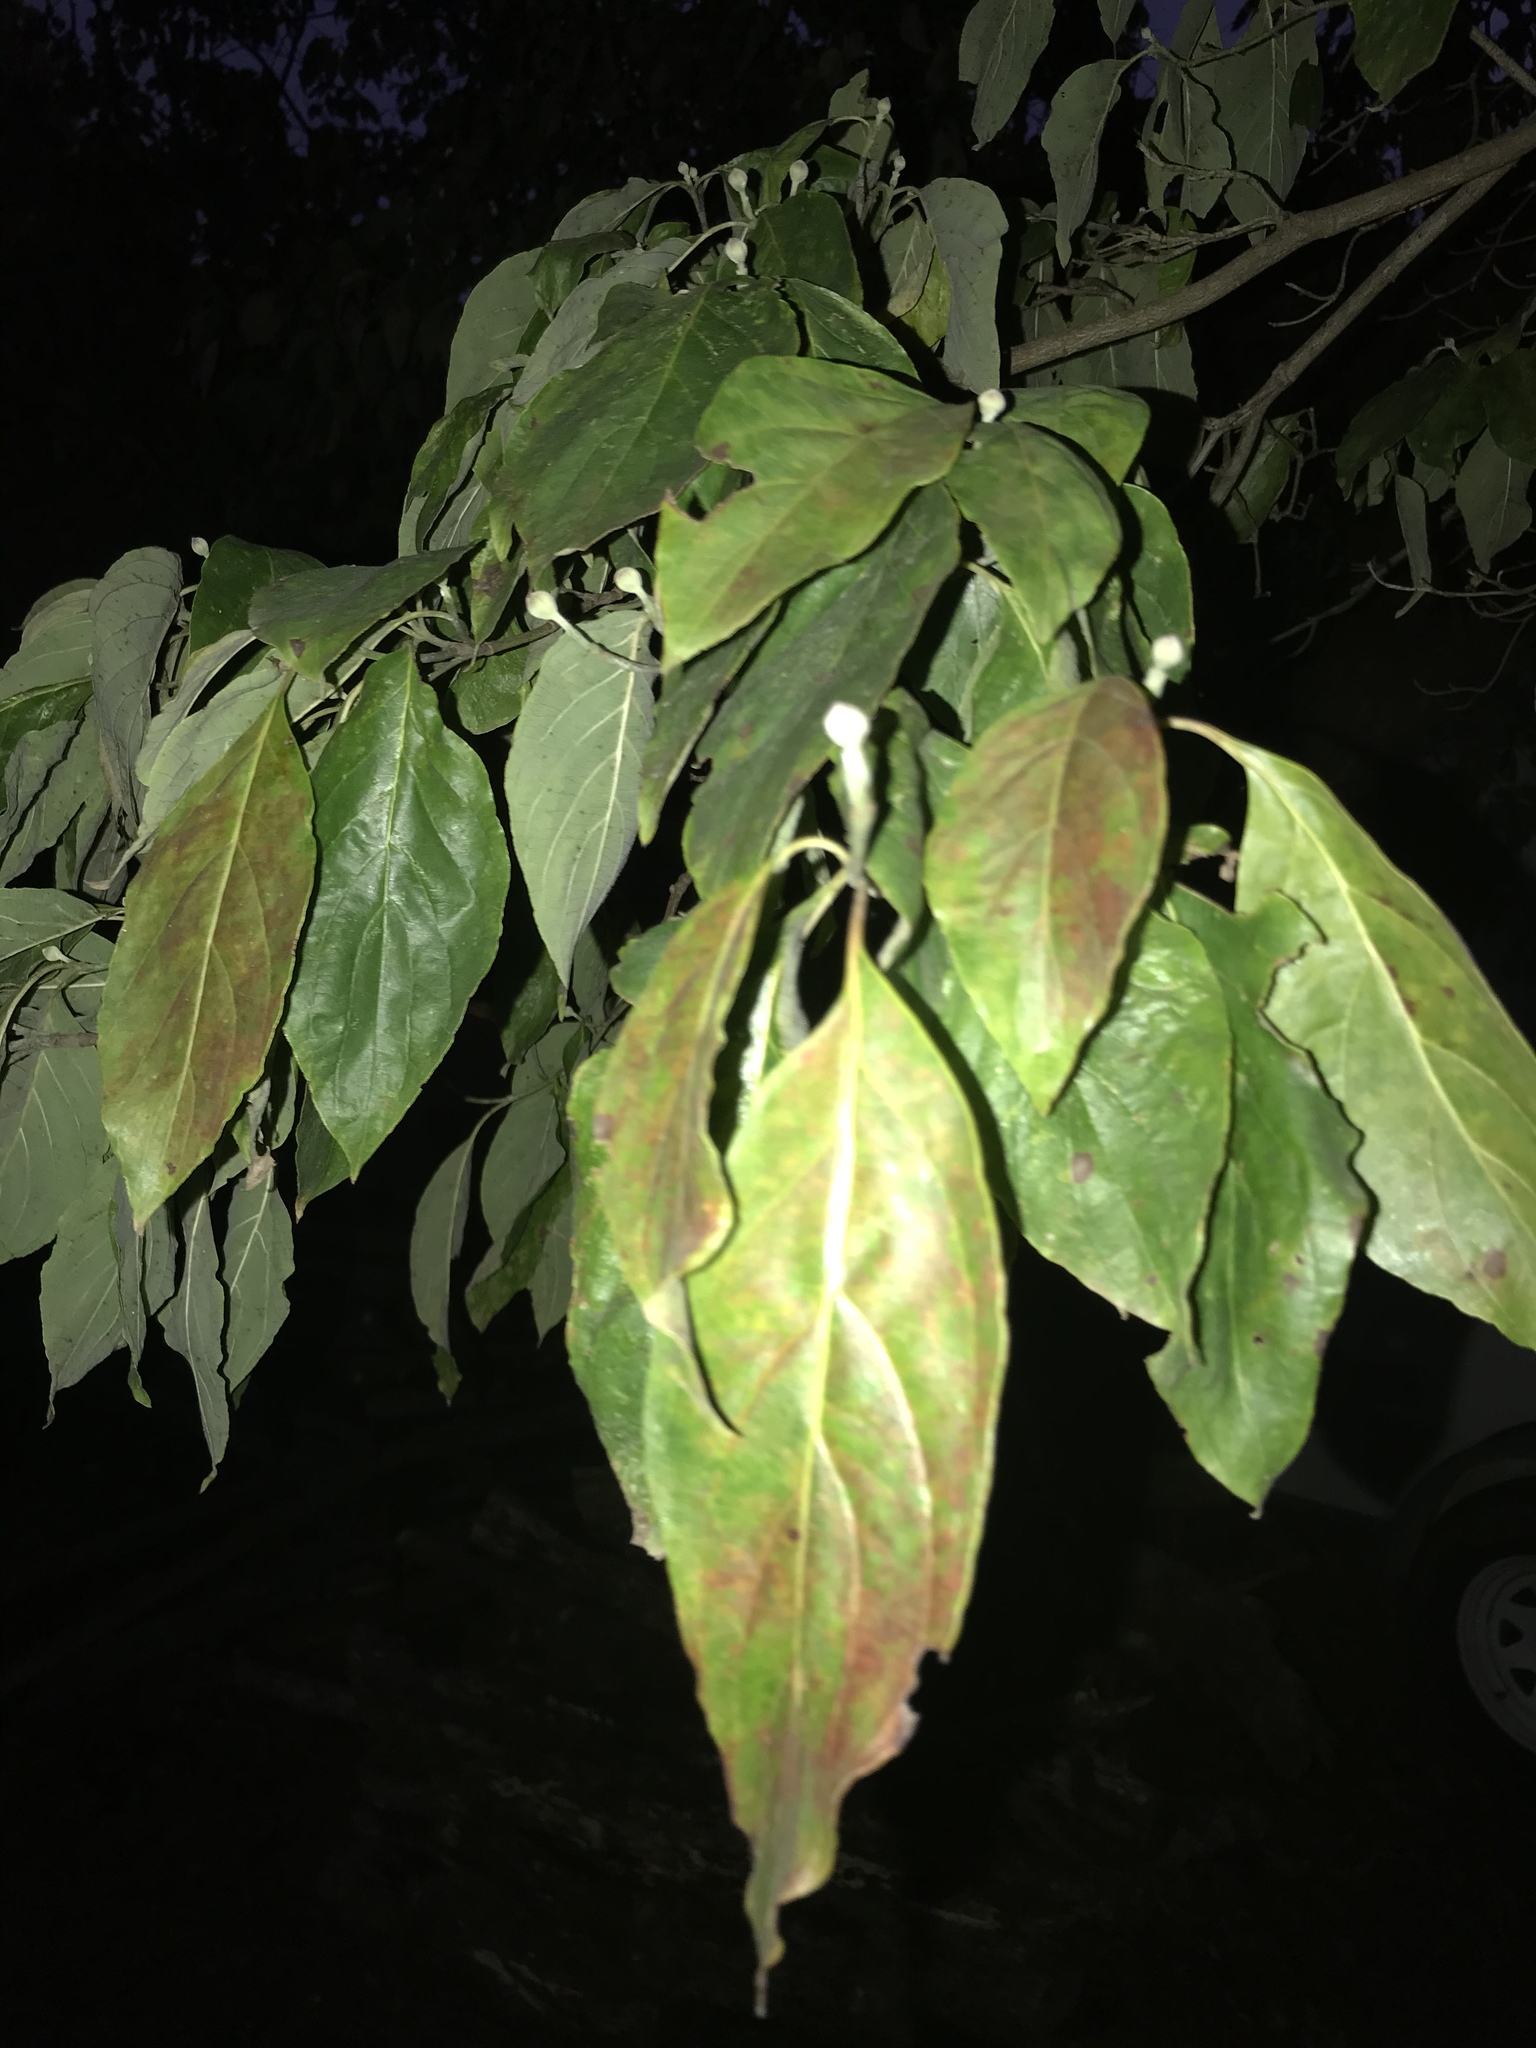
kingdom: Plantae
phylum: Tracheophyta
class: Magnoliopsida
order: Cornales
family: Cornaceae
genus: Cornus
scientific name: Cornus florida
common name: Flowering dogwood
